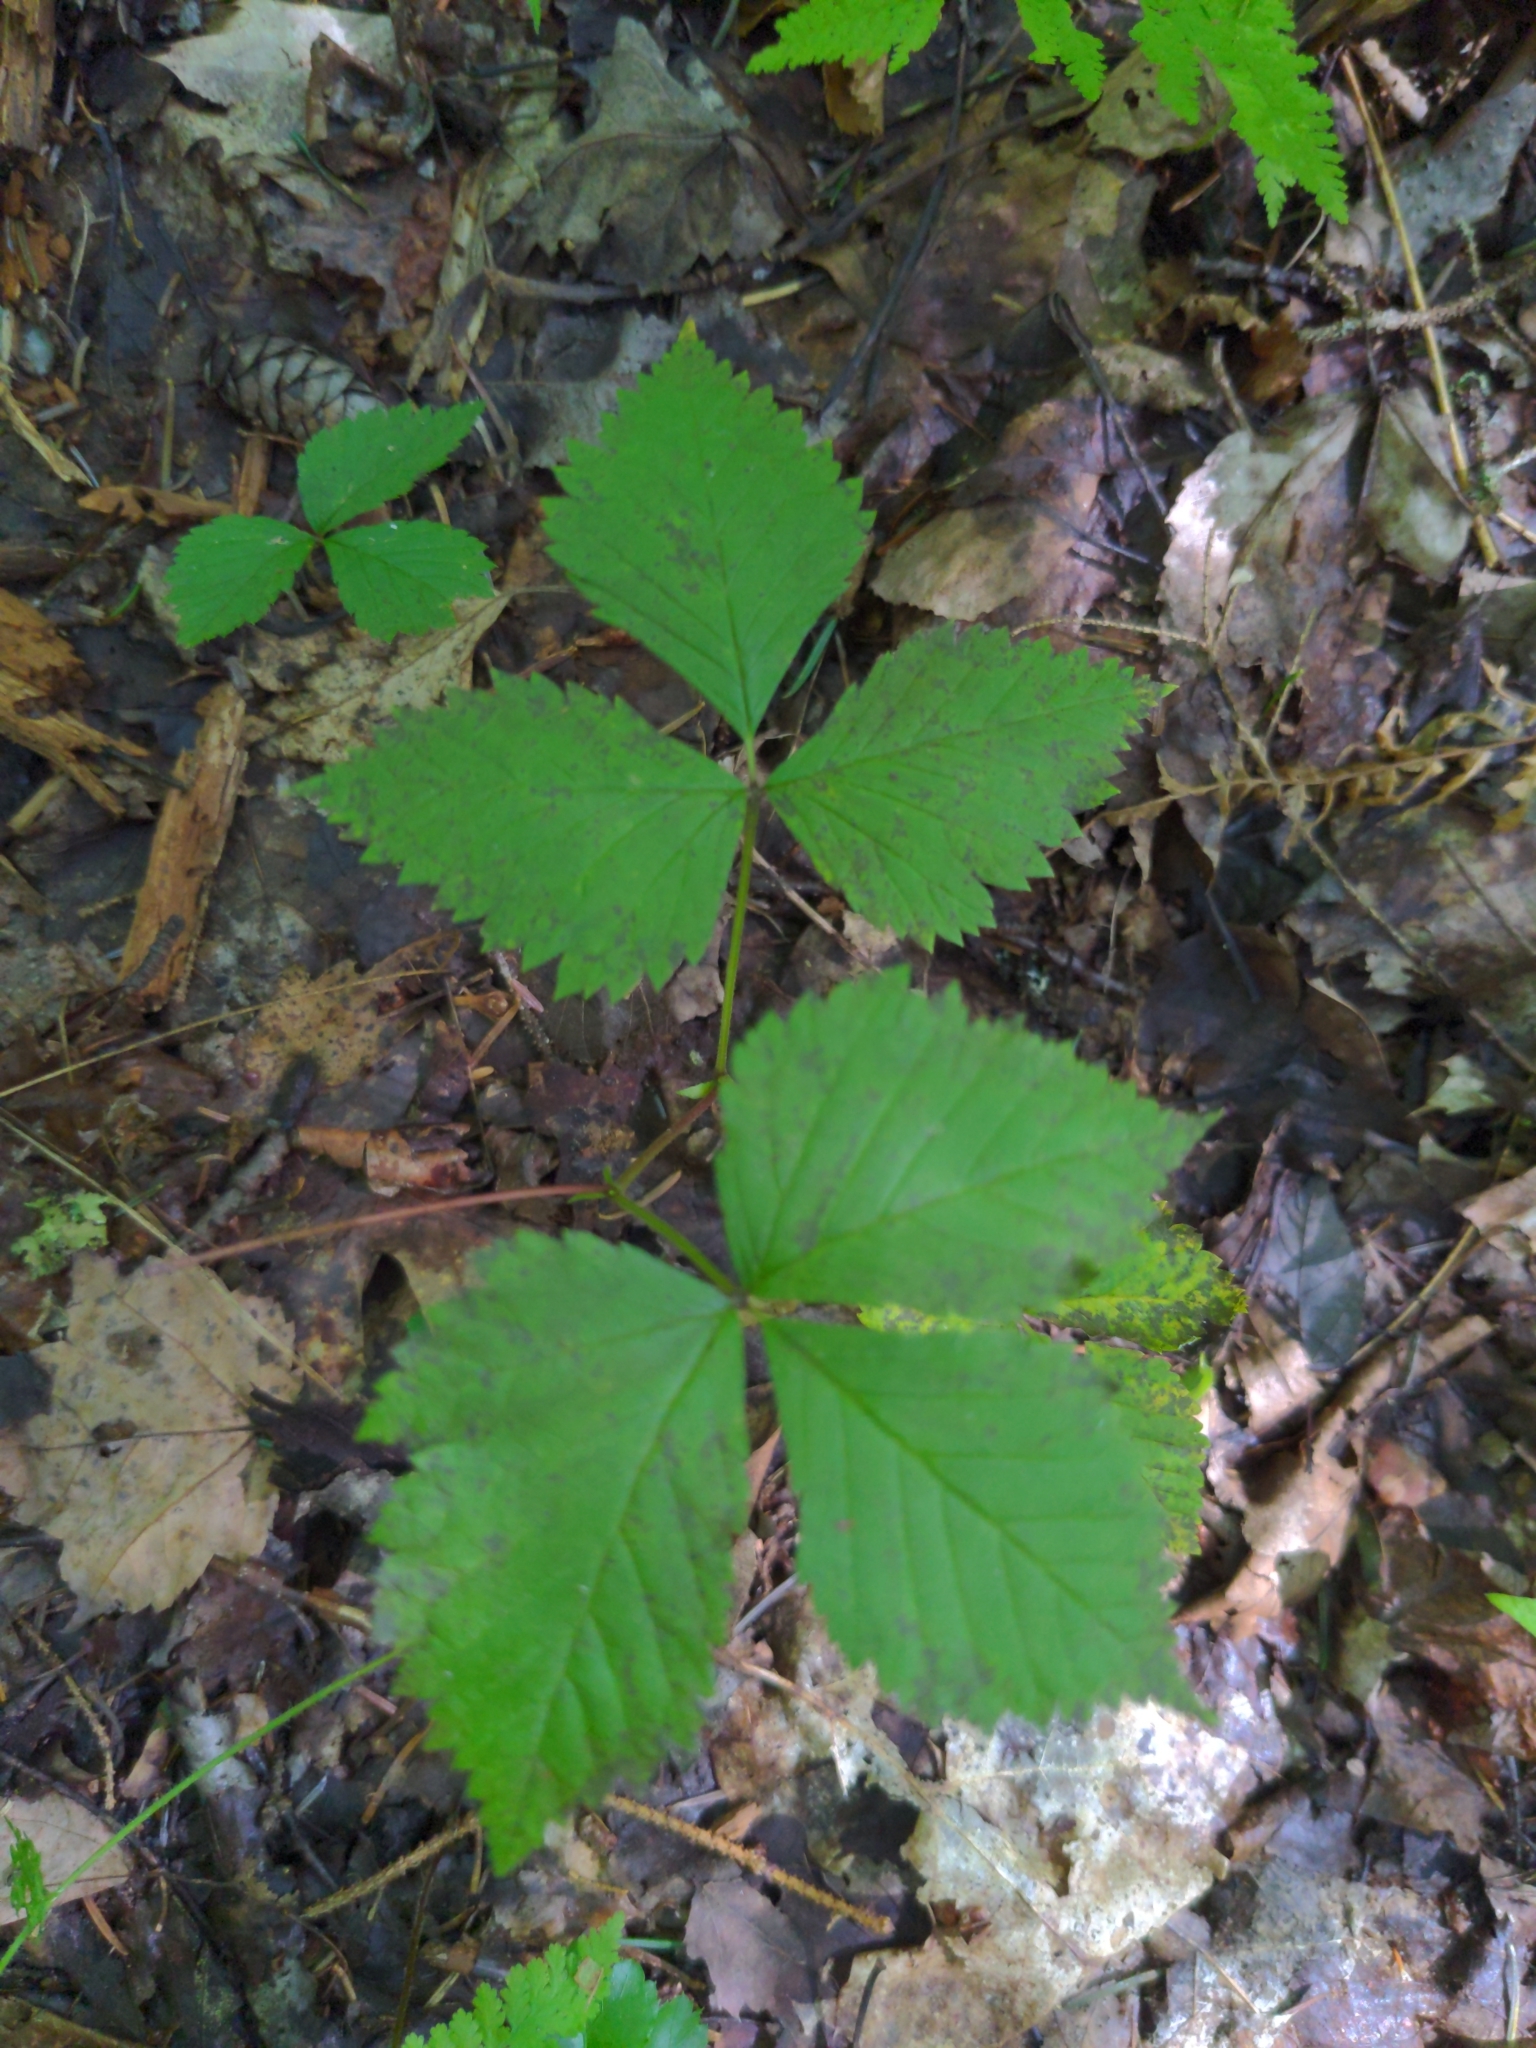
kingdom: Plantae
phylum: Tracheophyta
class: Magnoliopsida
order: Rosales
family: Rosaceae
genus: Rubus
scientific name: Rubus pubescens
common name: Dwarf raspberry
